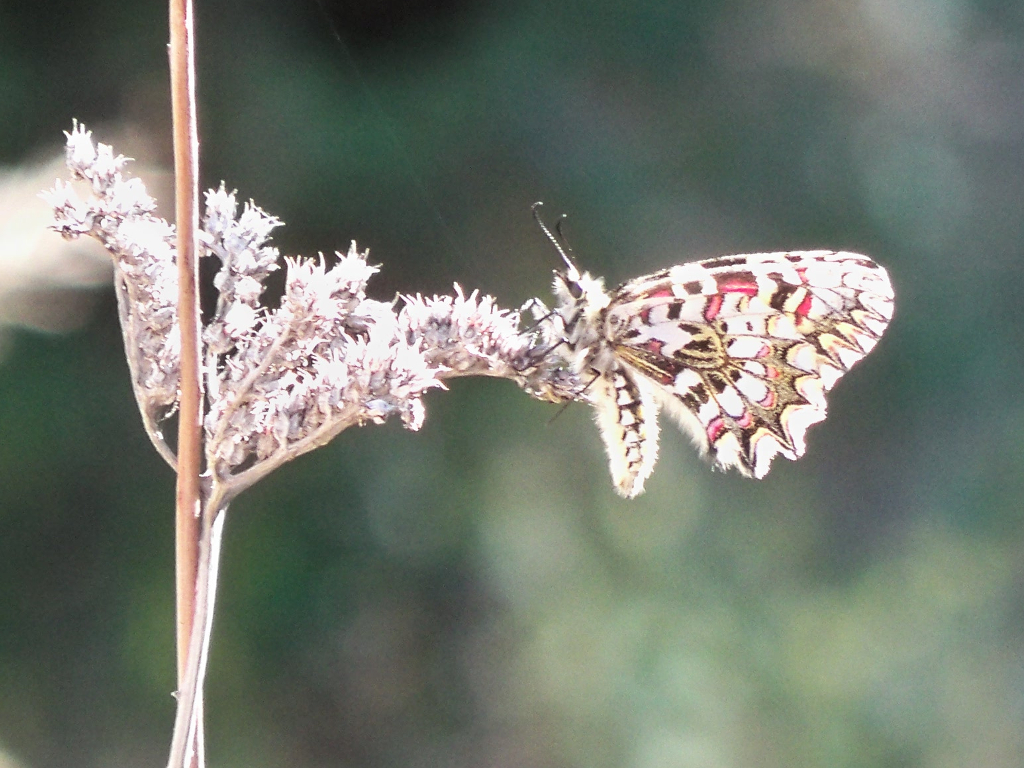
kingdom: Animalia
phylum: Arthropoda
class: Insecta
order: Lepidoptera
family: Papilionidae
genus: Zerynthia
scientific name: Zerynthia rumina
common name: Spanish festoon
